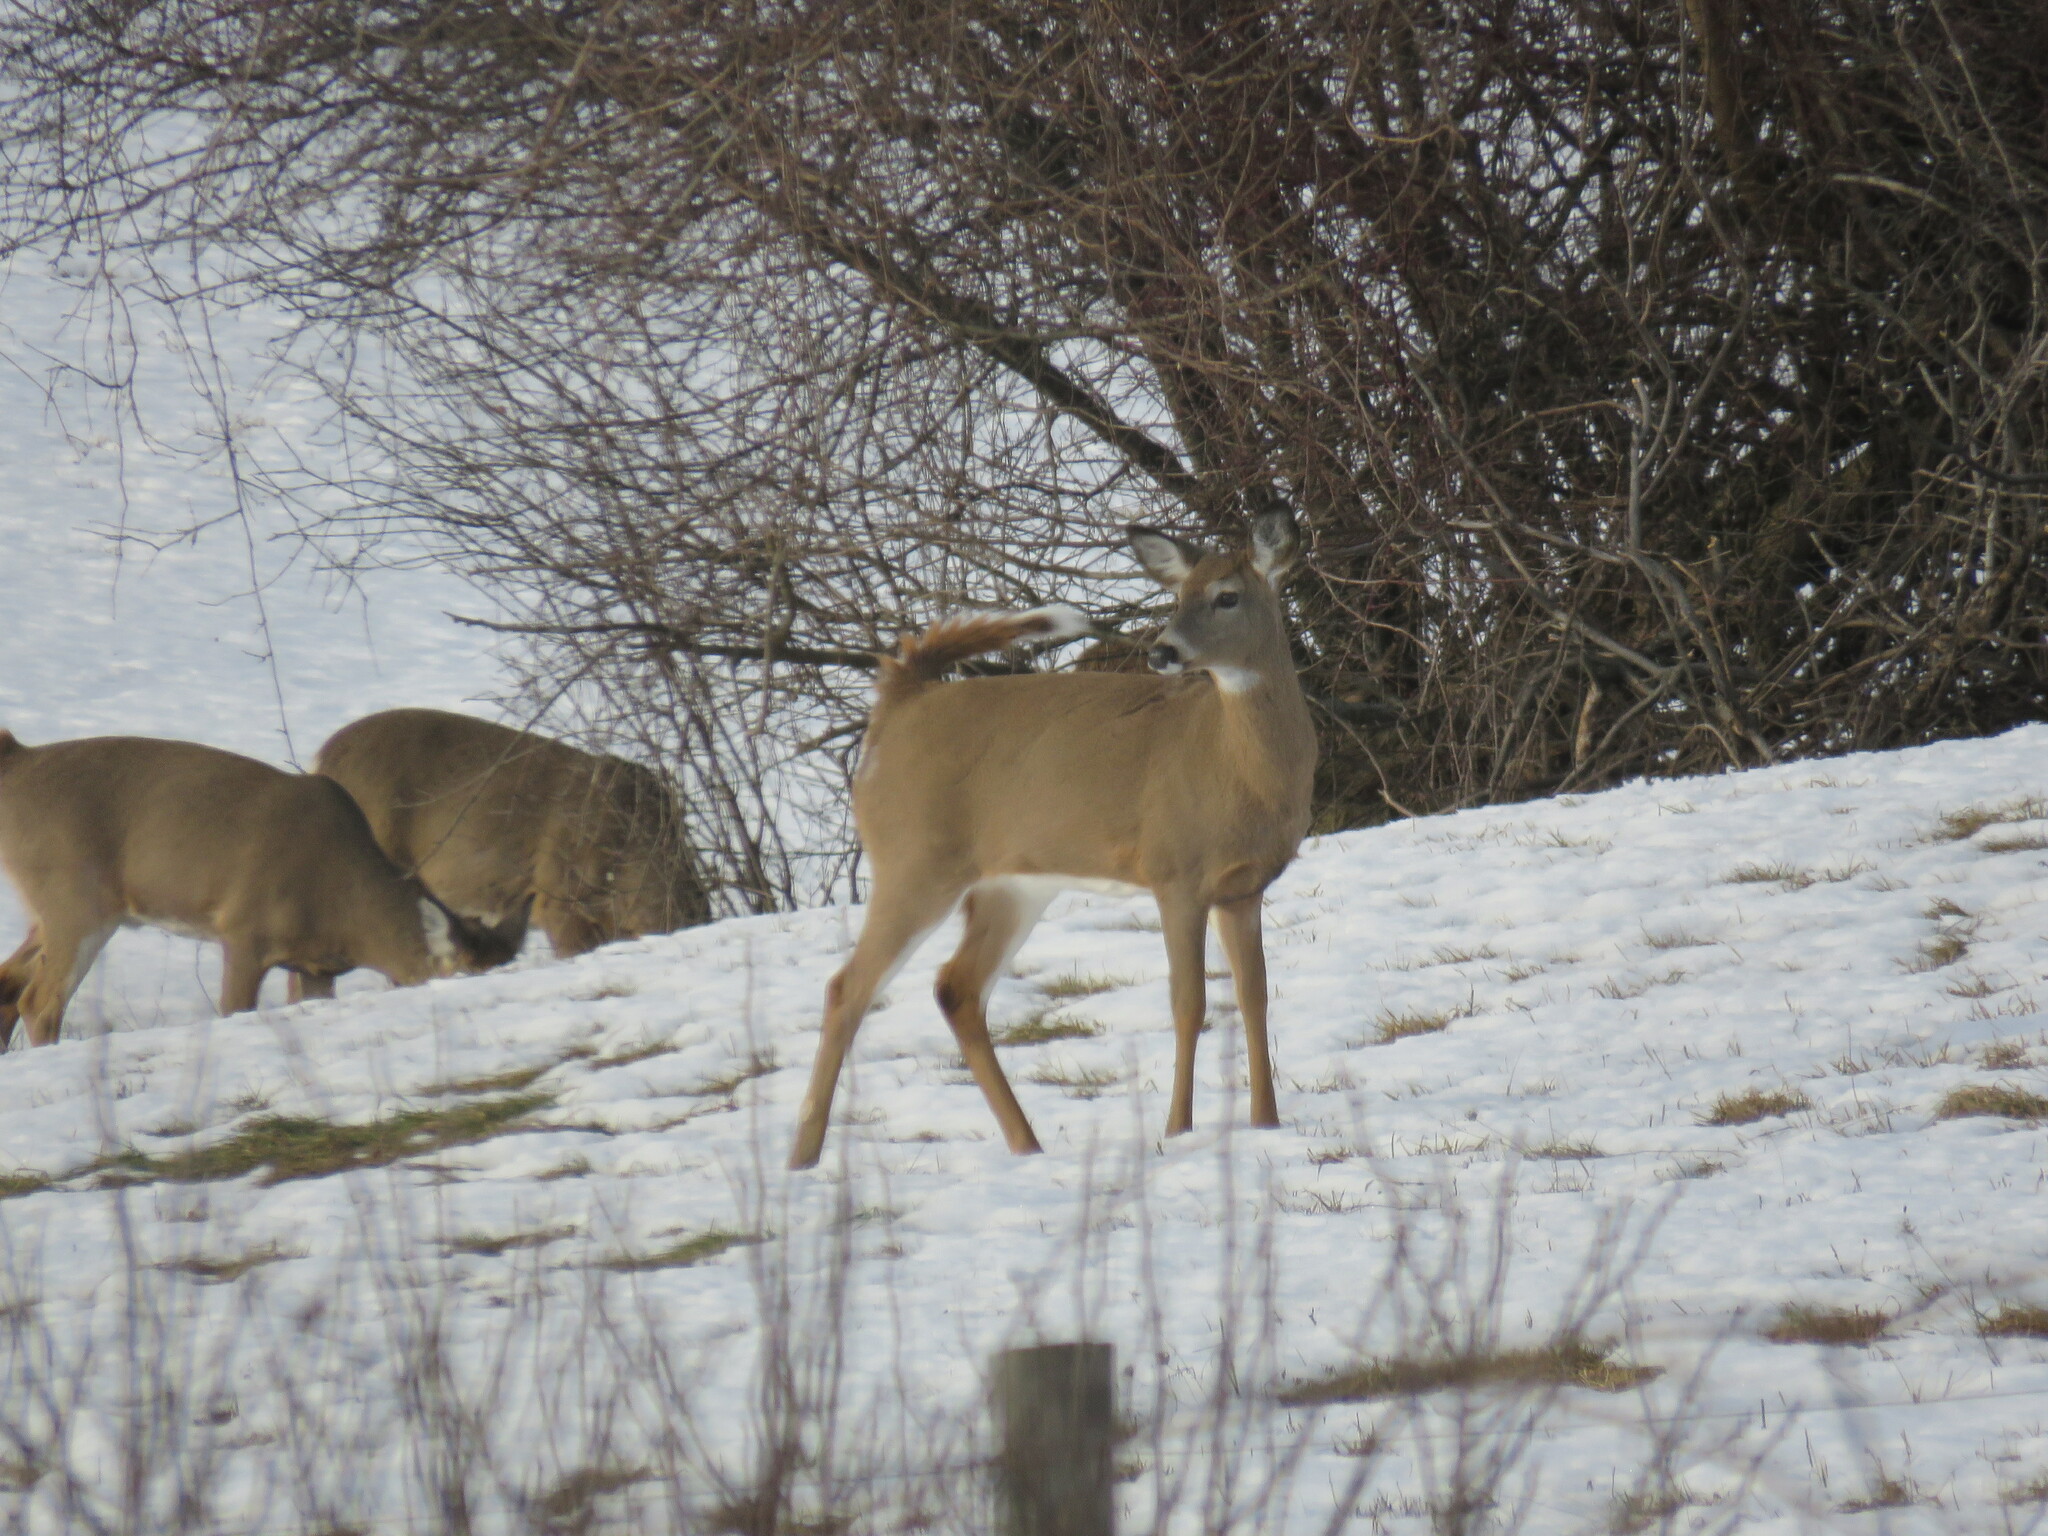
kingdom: Animalia
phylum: Chordata
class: Mammalia
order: Artiodactyla
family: Cervidae
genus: Odocoileus
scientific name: Odocoileus virginianus
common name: White-tailed deer
